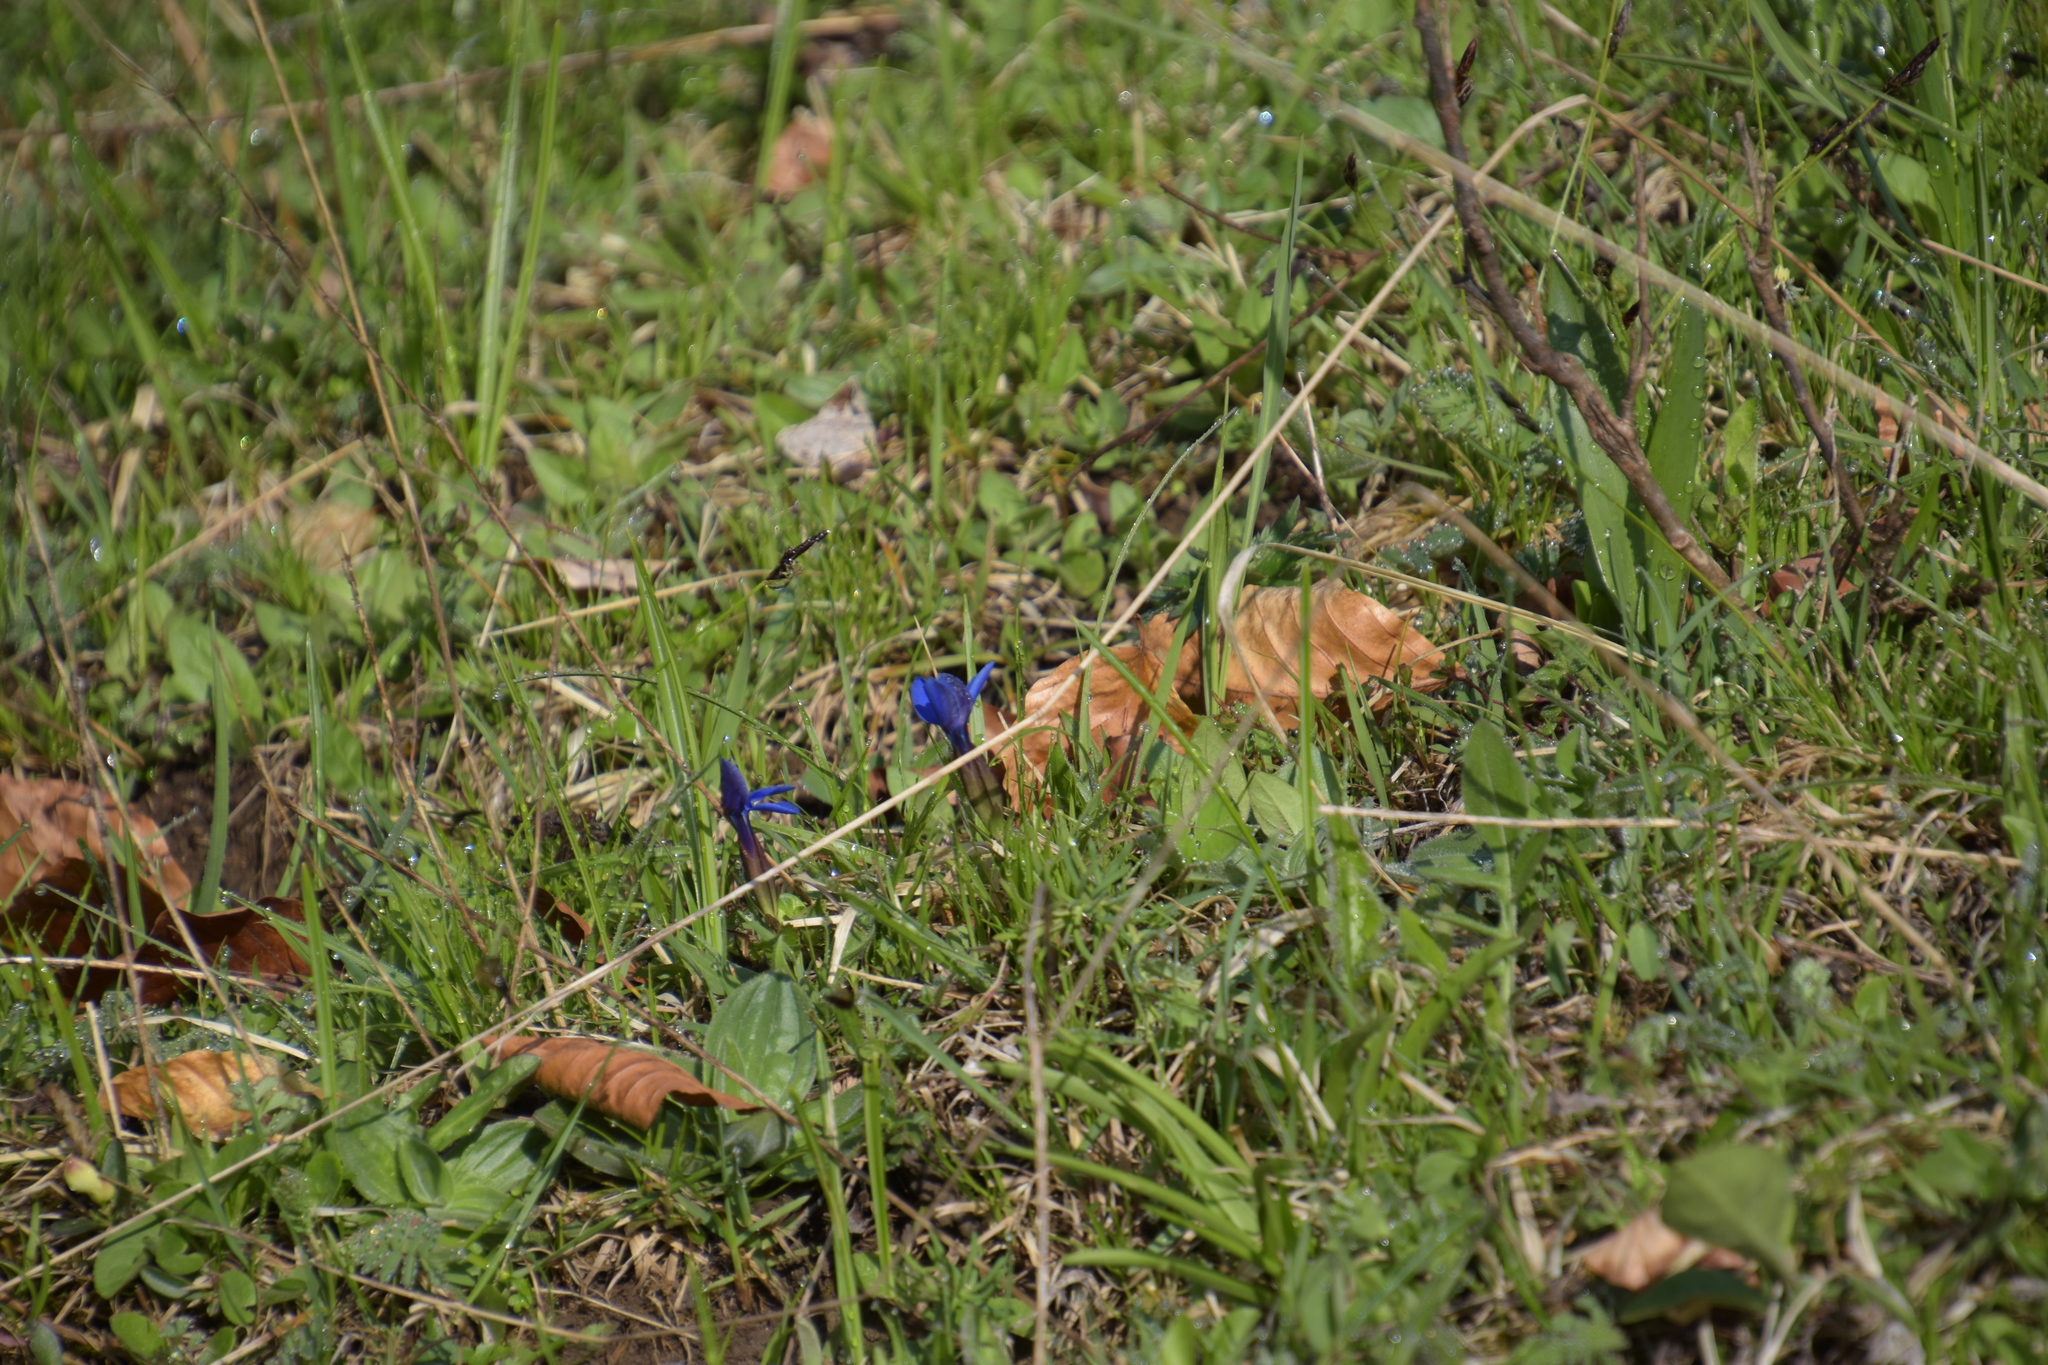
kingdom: Plantae
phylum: Tracheophyta
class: Magnoliopsida
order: Gentianales
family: Gentianaceae
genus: Gentiana
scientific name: Gentiana verna
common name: Spring gentian
